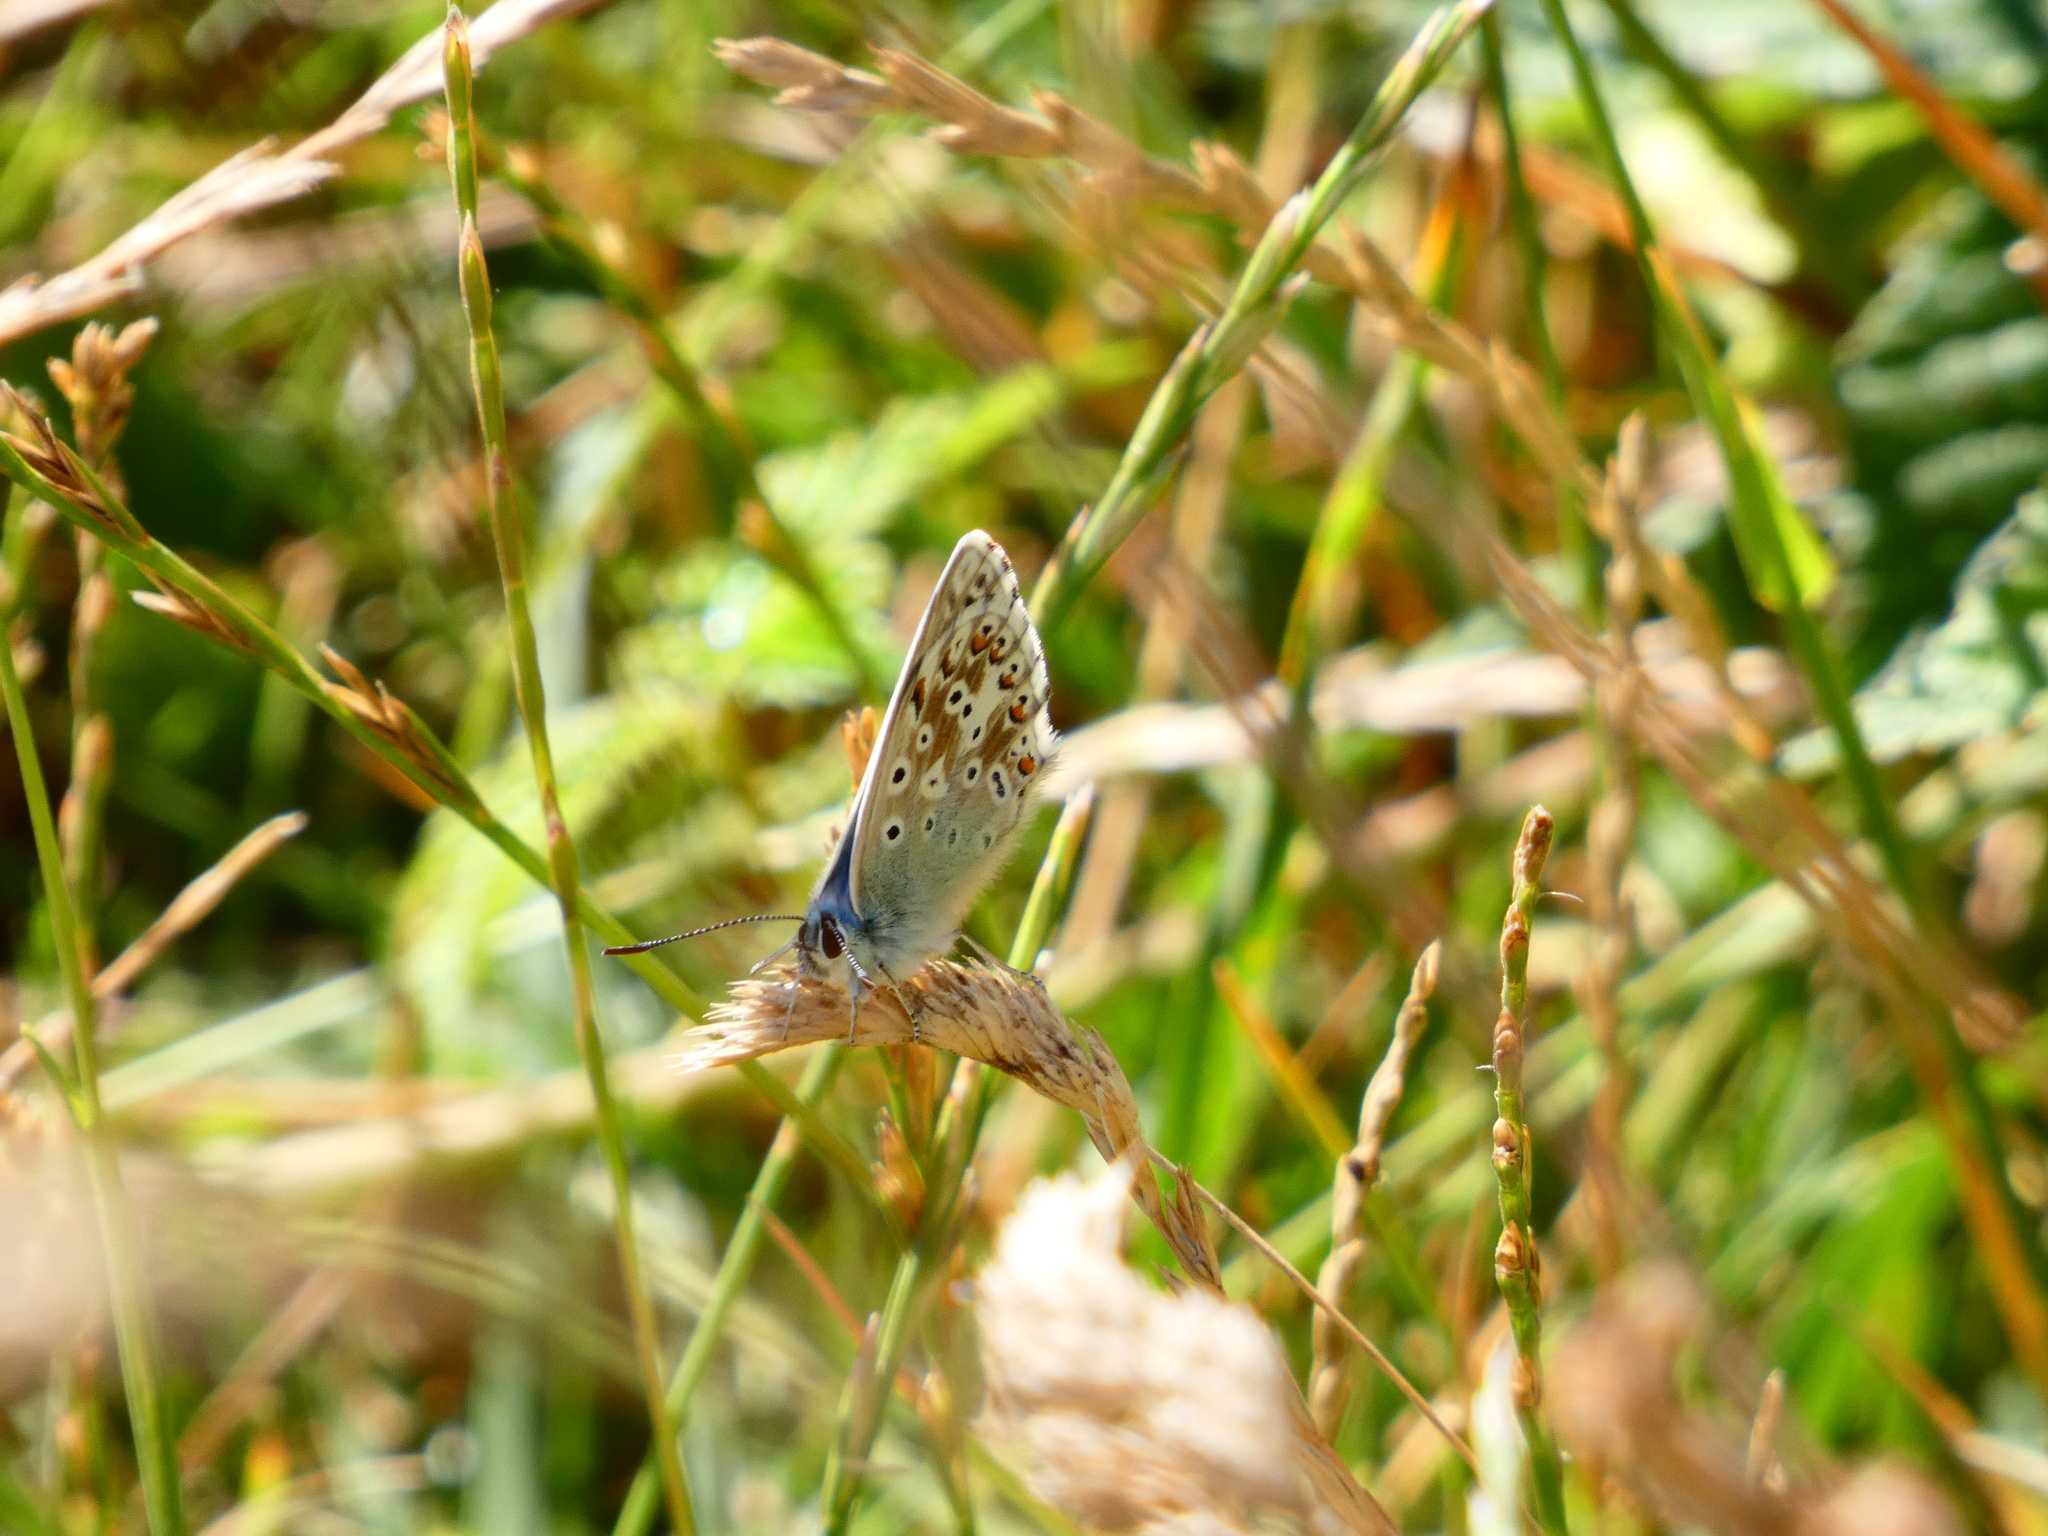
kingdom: Animalia
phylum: Arthropoda
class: Insecta
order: Lepidoptera
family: Lycaenidae
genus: Lysandra
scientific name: Lysandra coridon
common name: Chalkhill blue
